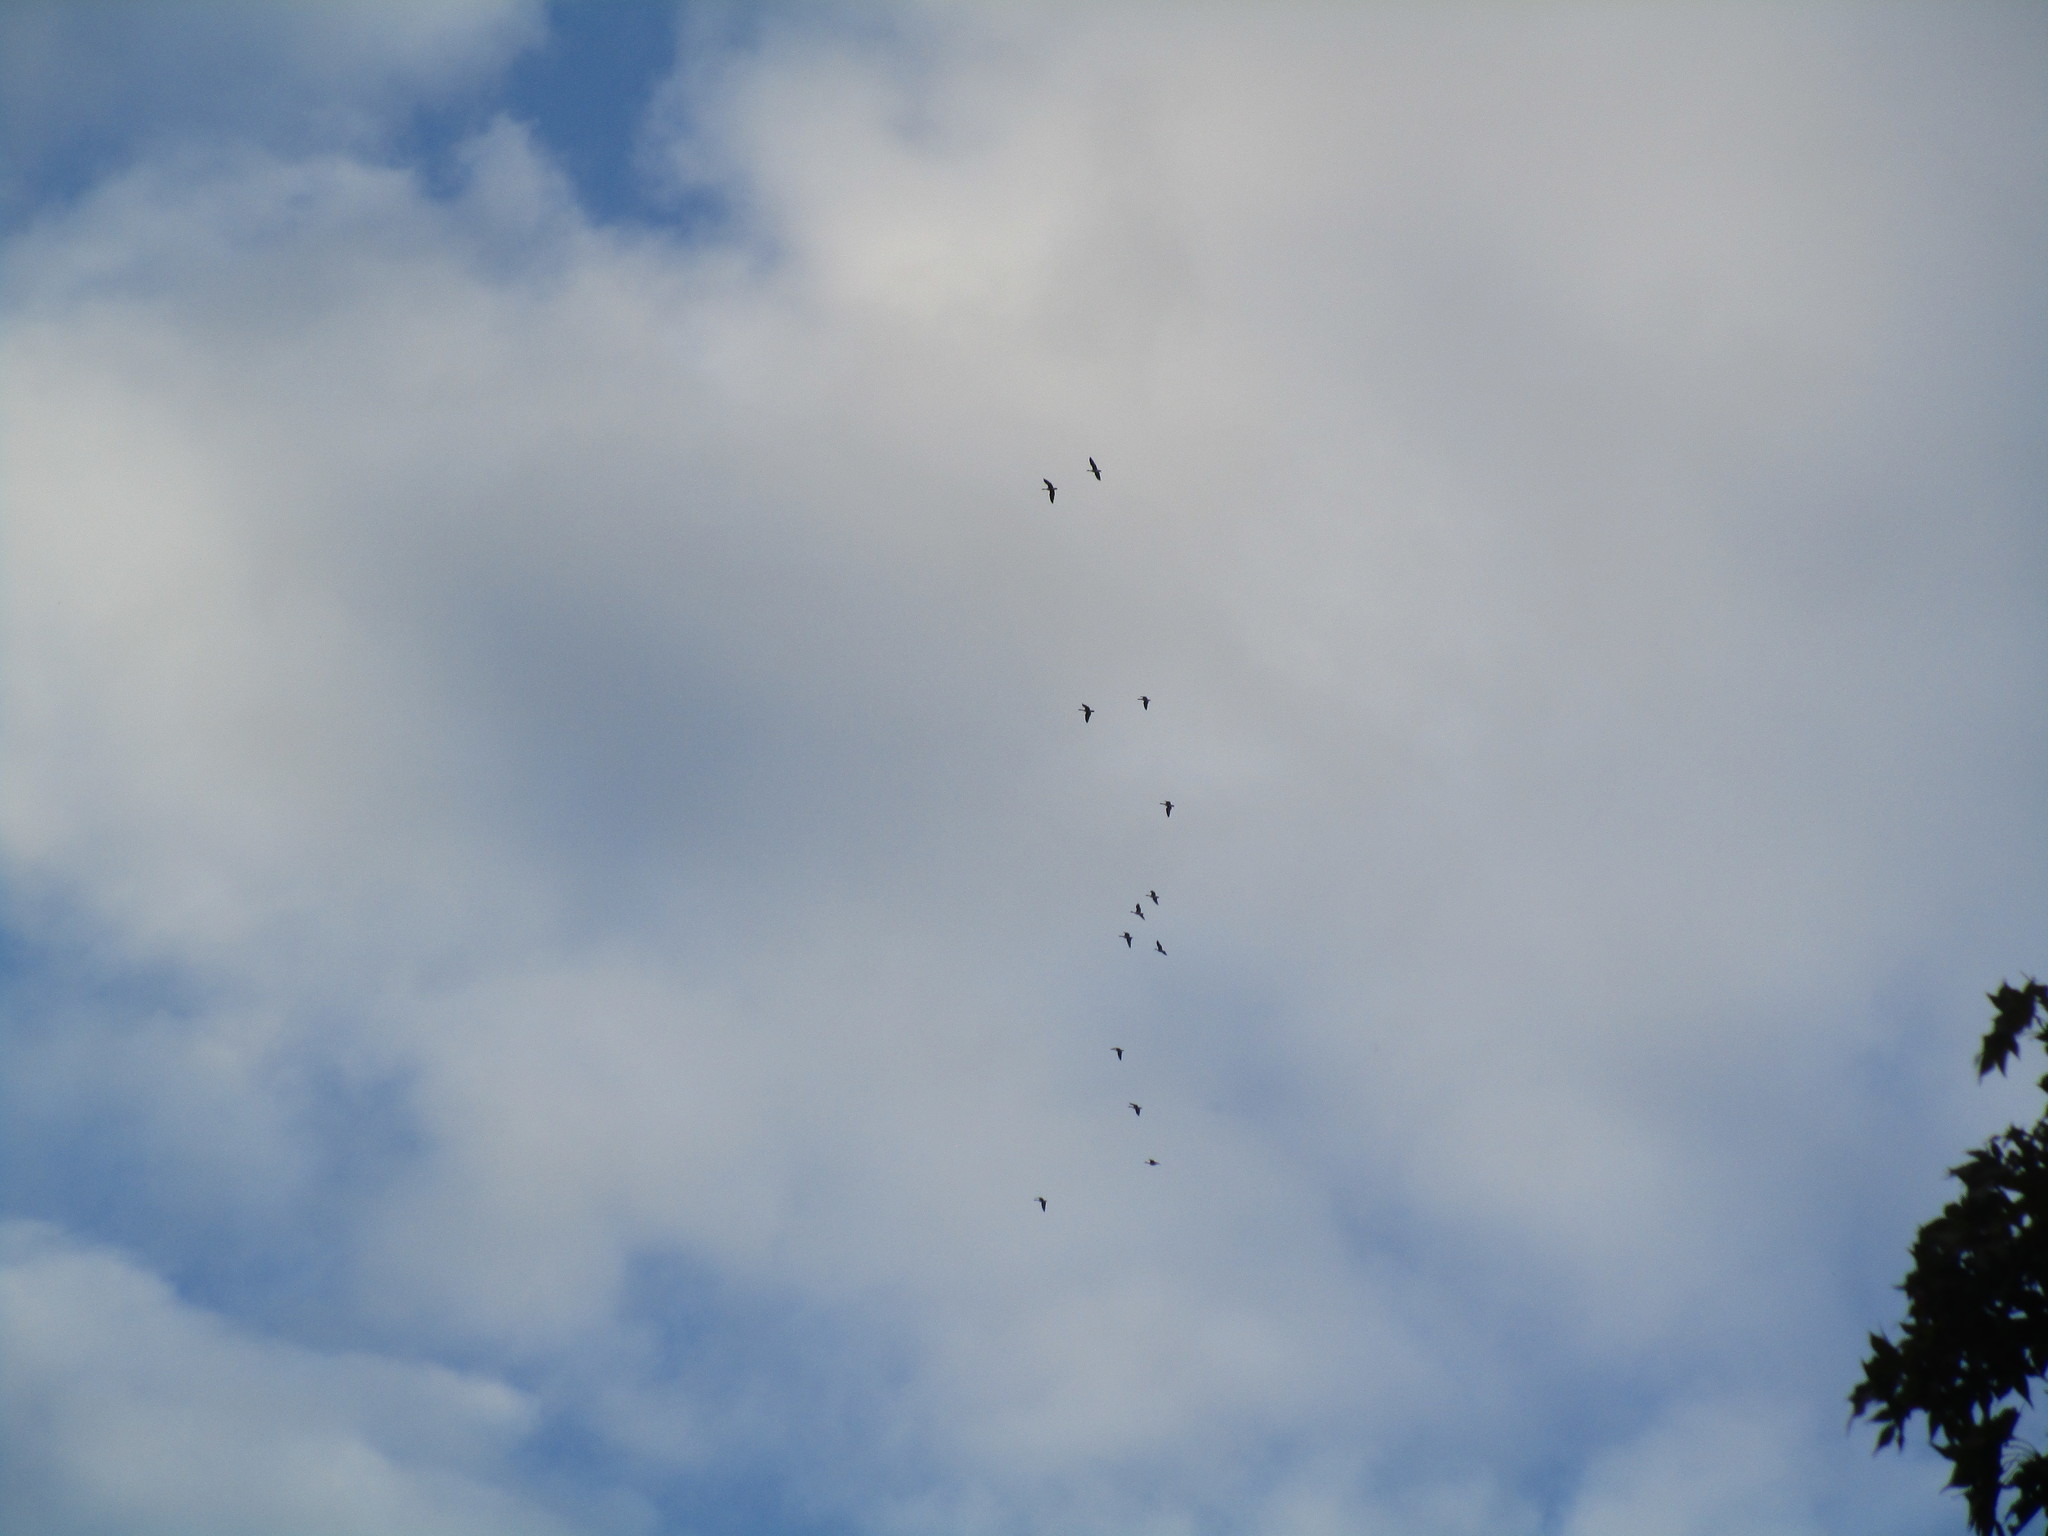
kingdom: Animalia
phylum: Chordata
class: Aves
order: Anseriformes
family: Anatidae
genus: Branta
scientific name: Branta canadensis
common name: Canada goose
